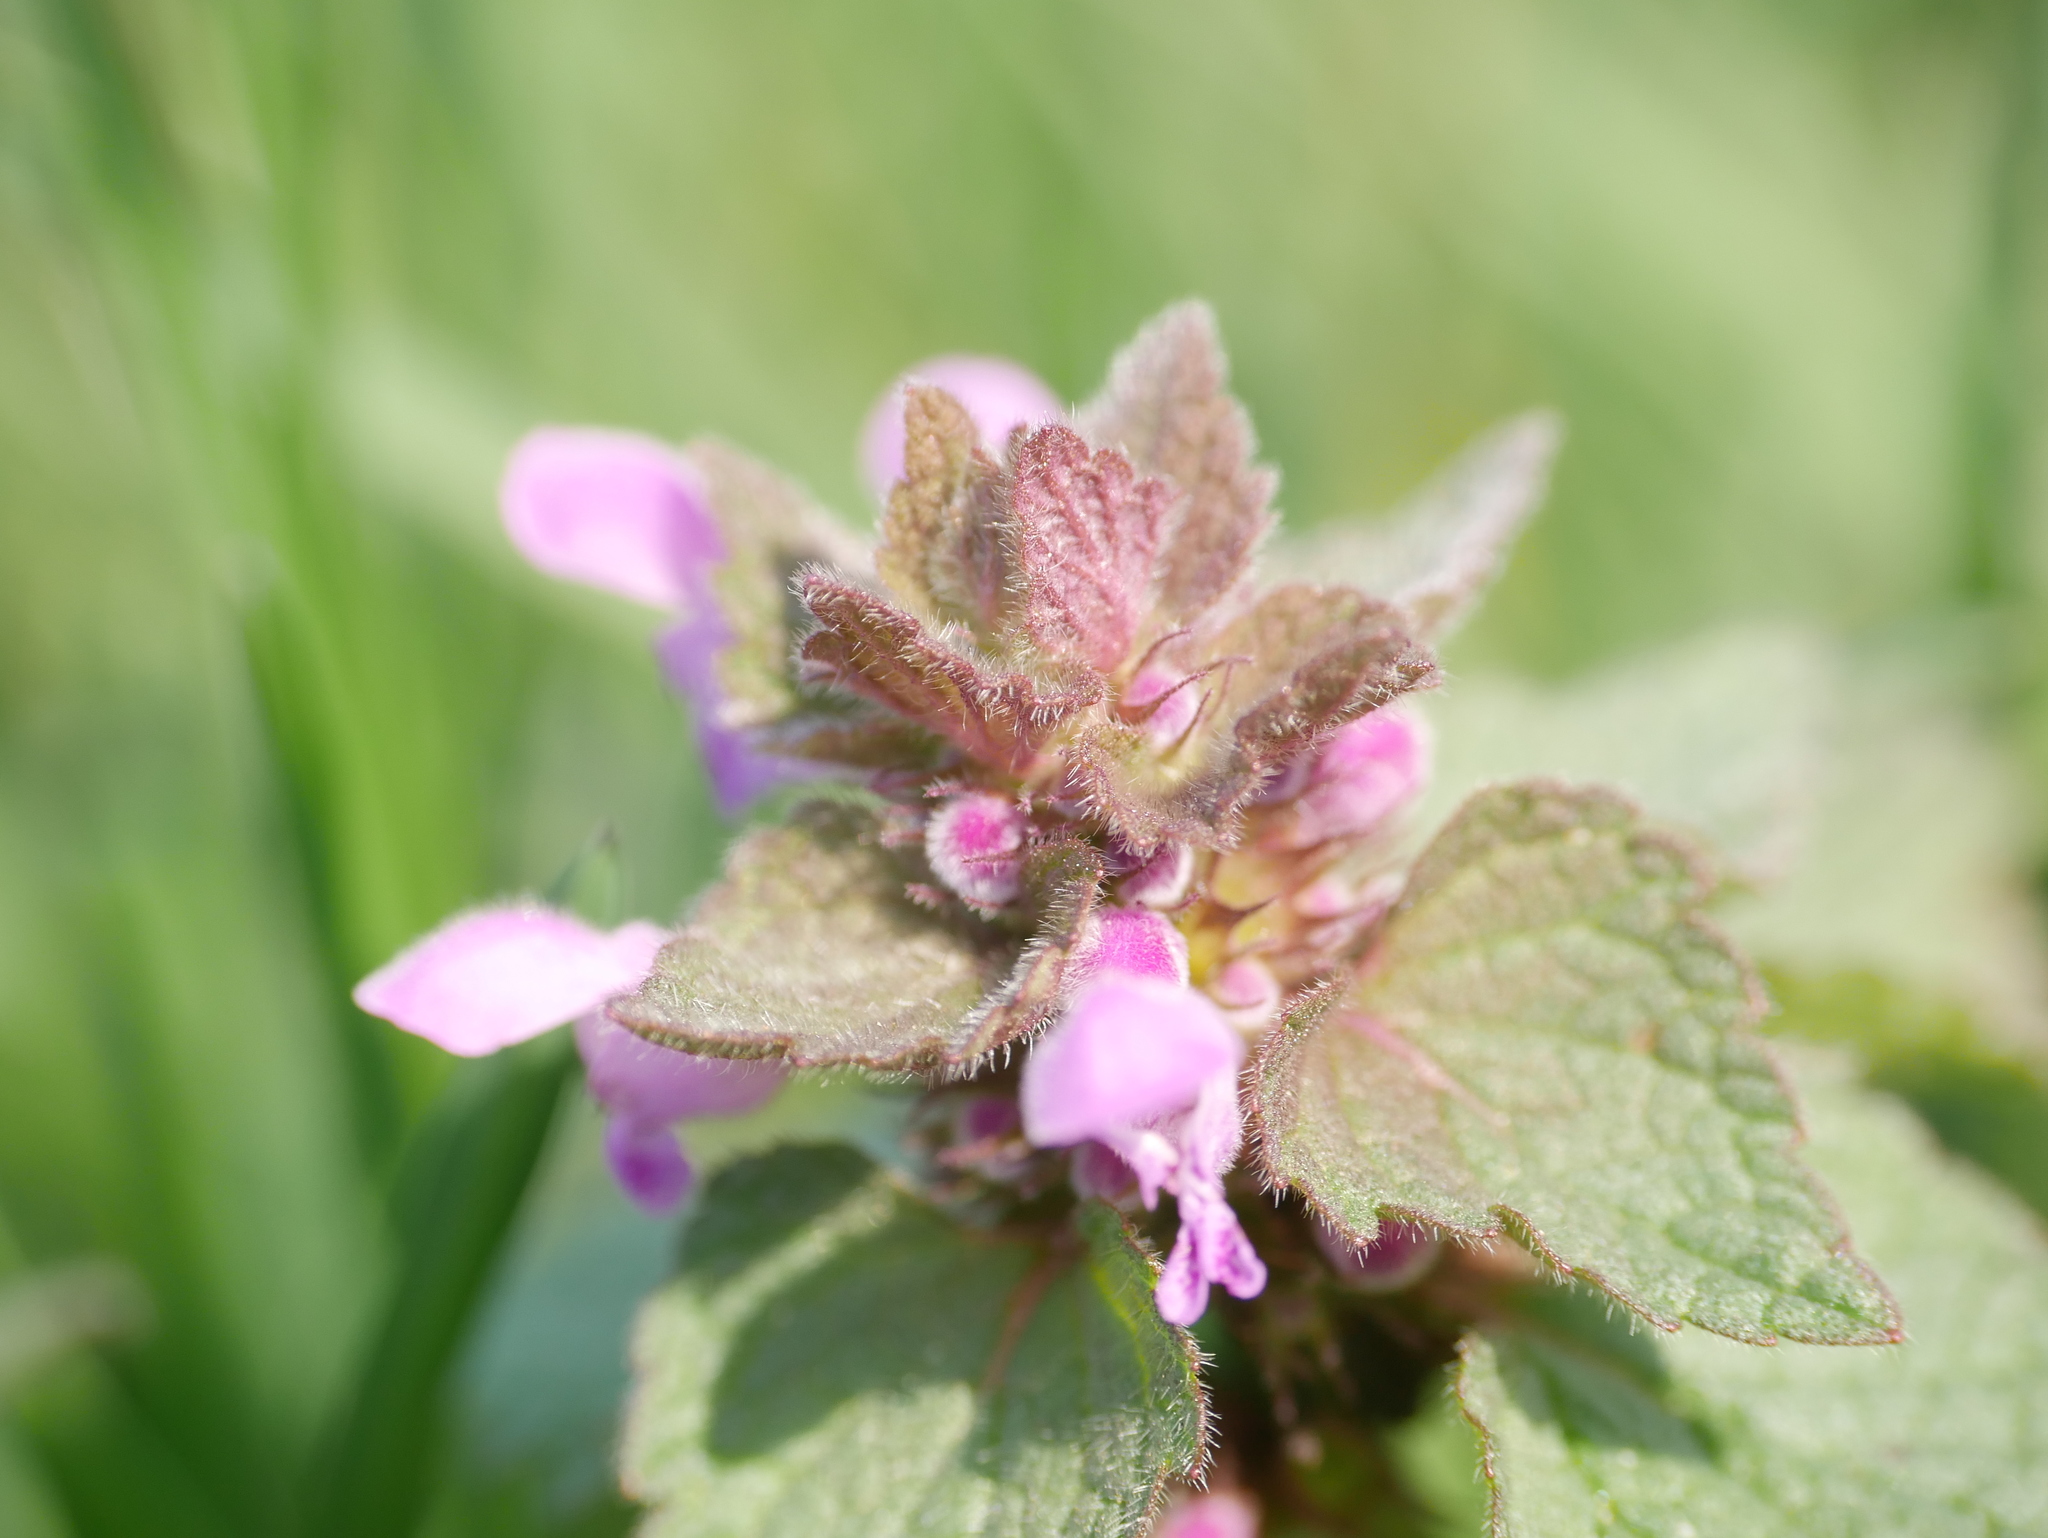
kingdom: Plantae
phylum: Tracheophyta
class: Magnoliopsida
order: Lamiales
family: Lamiaceae
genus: Lamium
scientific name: Lamium purpureum
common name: Red dead-nettle
